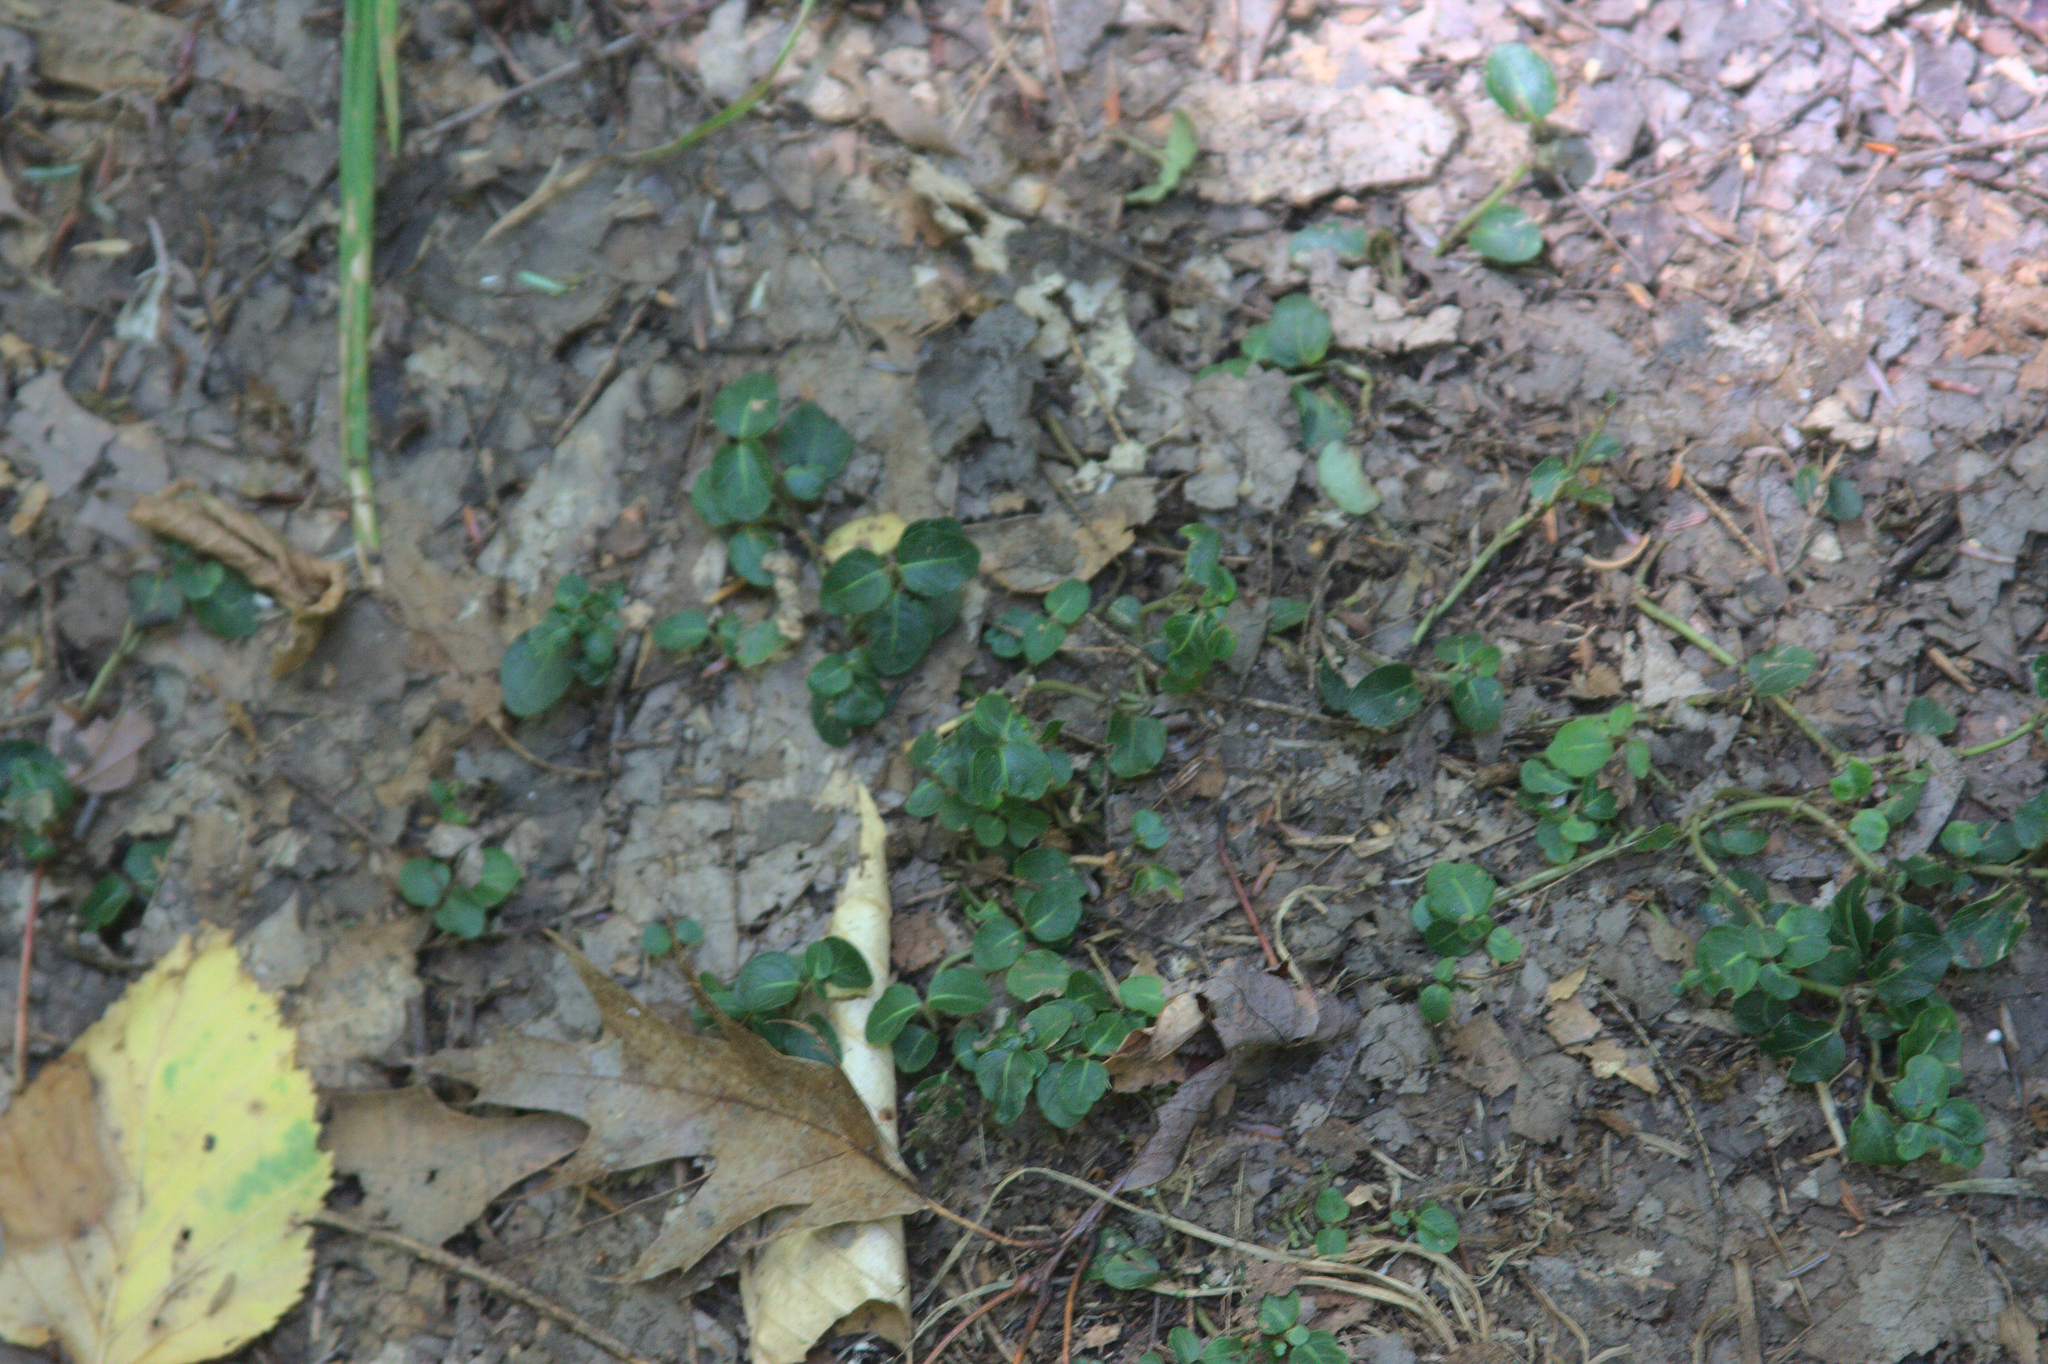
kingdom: Plantae
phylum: Tracheophyta
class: Magnoliopsida
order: Gentianales
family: Rubiaceae
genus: Mitchella
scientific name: Mitchella repens
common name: Partridge-berry
